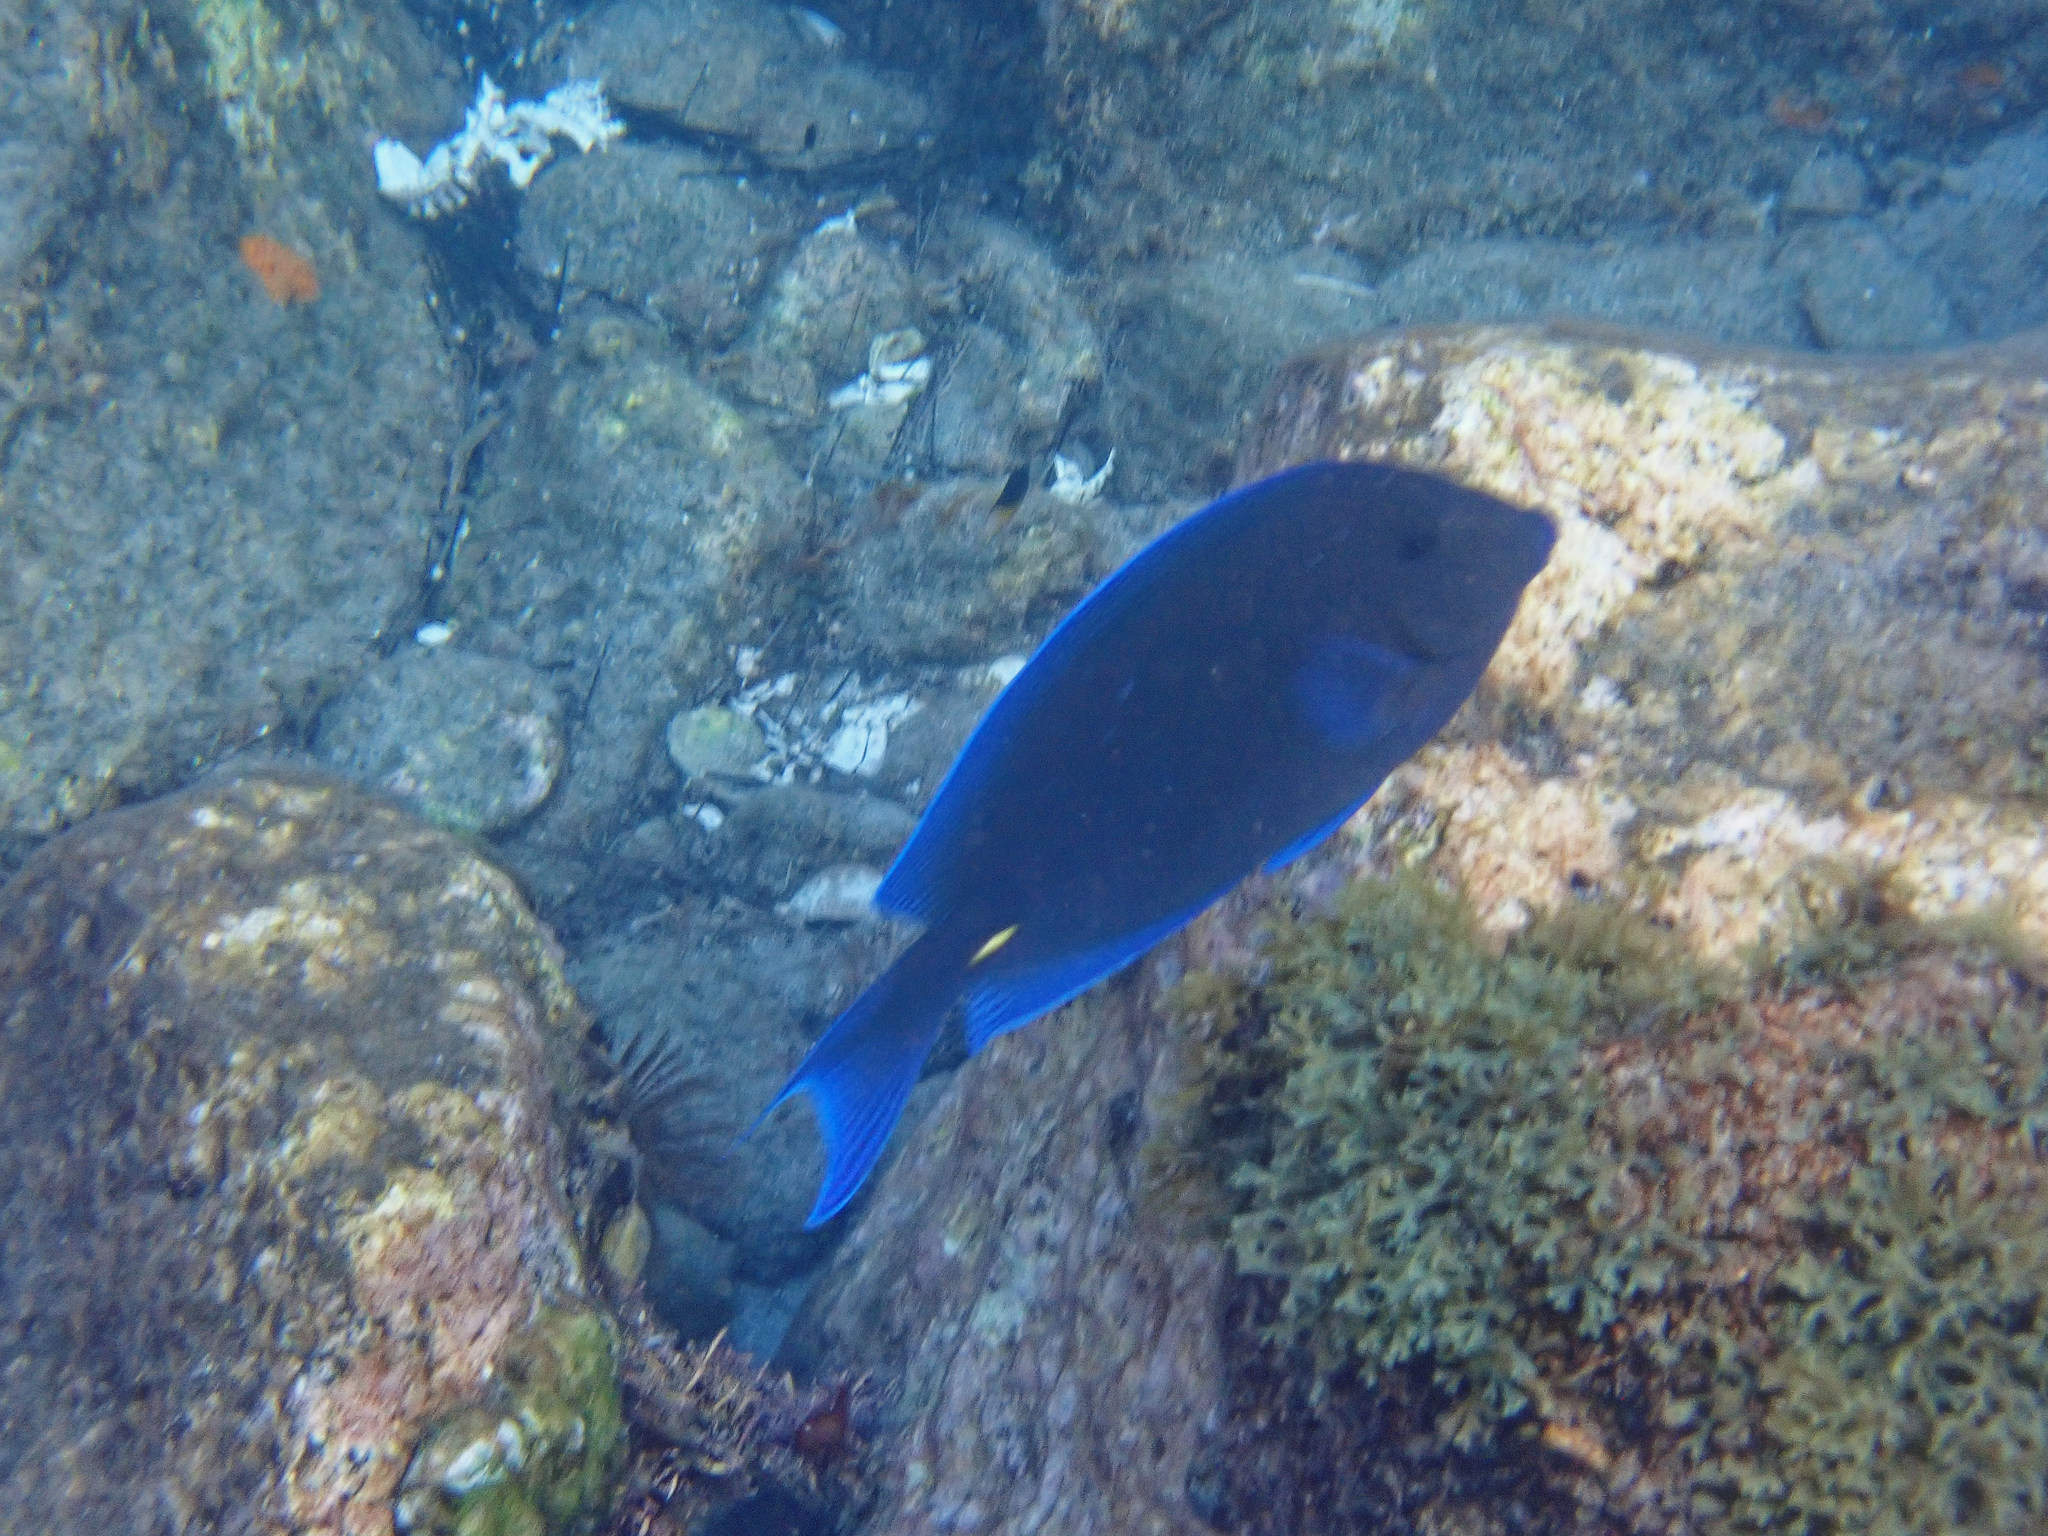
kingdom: Animalia
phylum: Chordata
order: Perciformes
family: Acanthuridae
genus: Acanthurus
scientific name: Acanthurus coeruleus
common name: Blue tang
